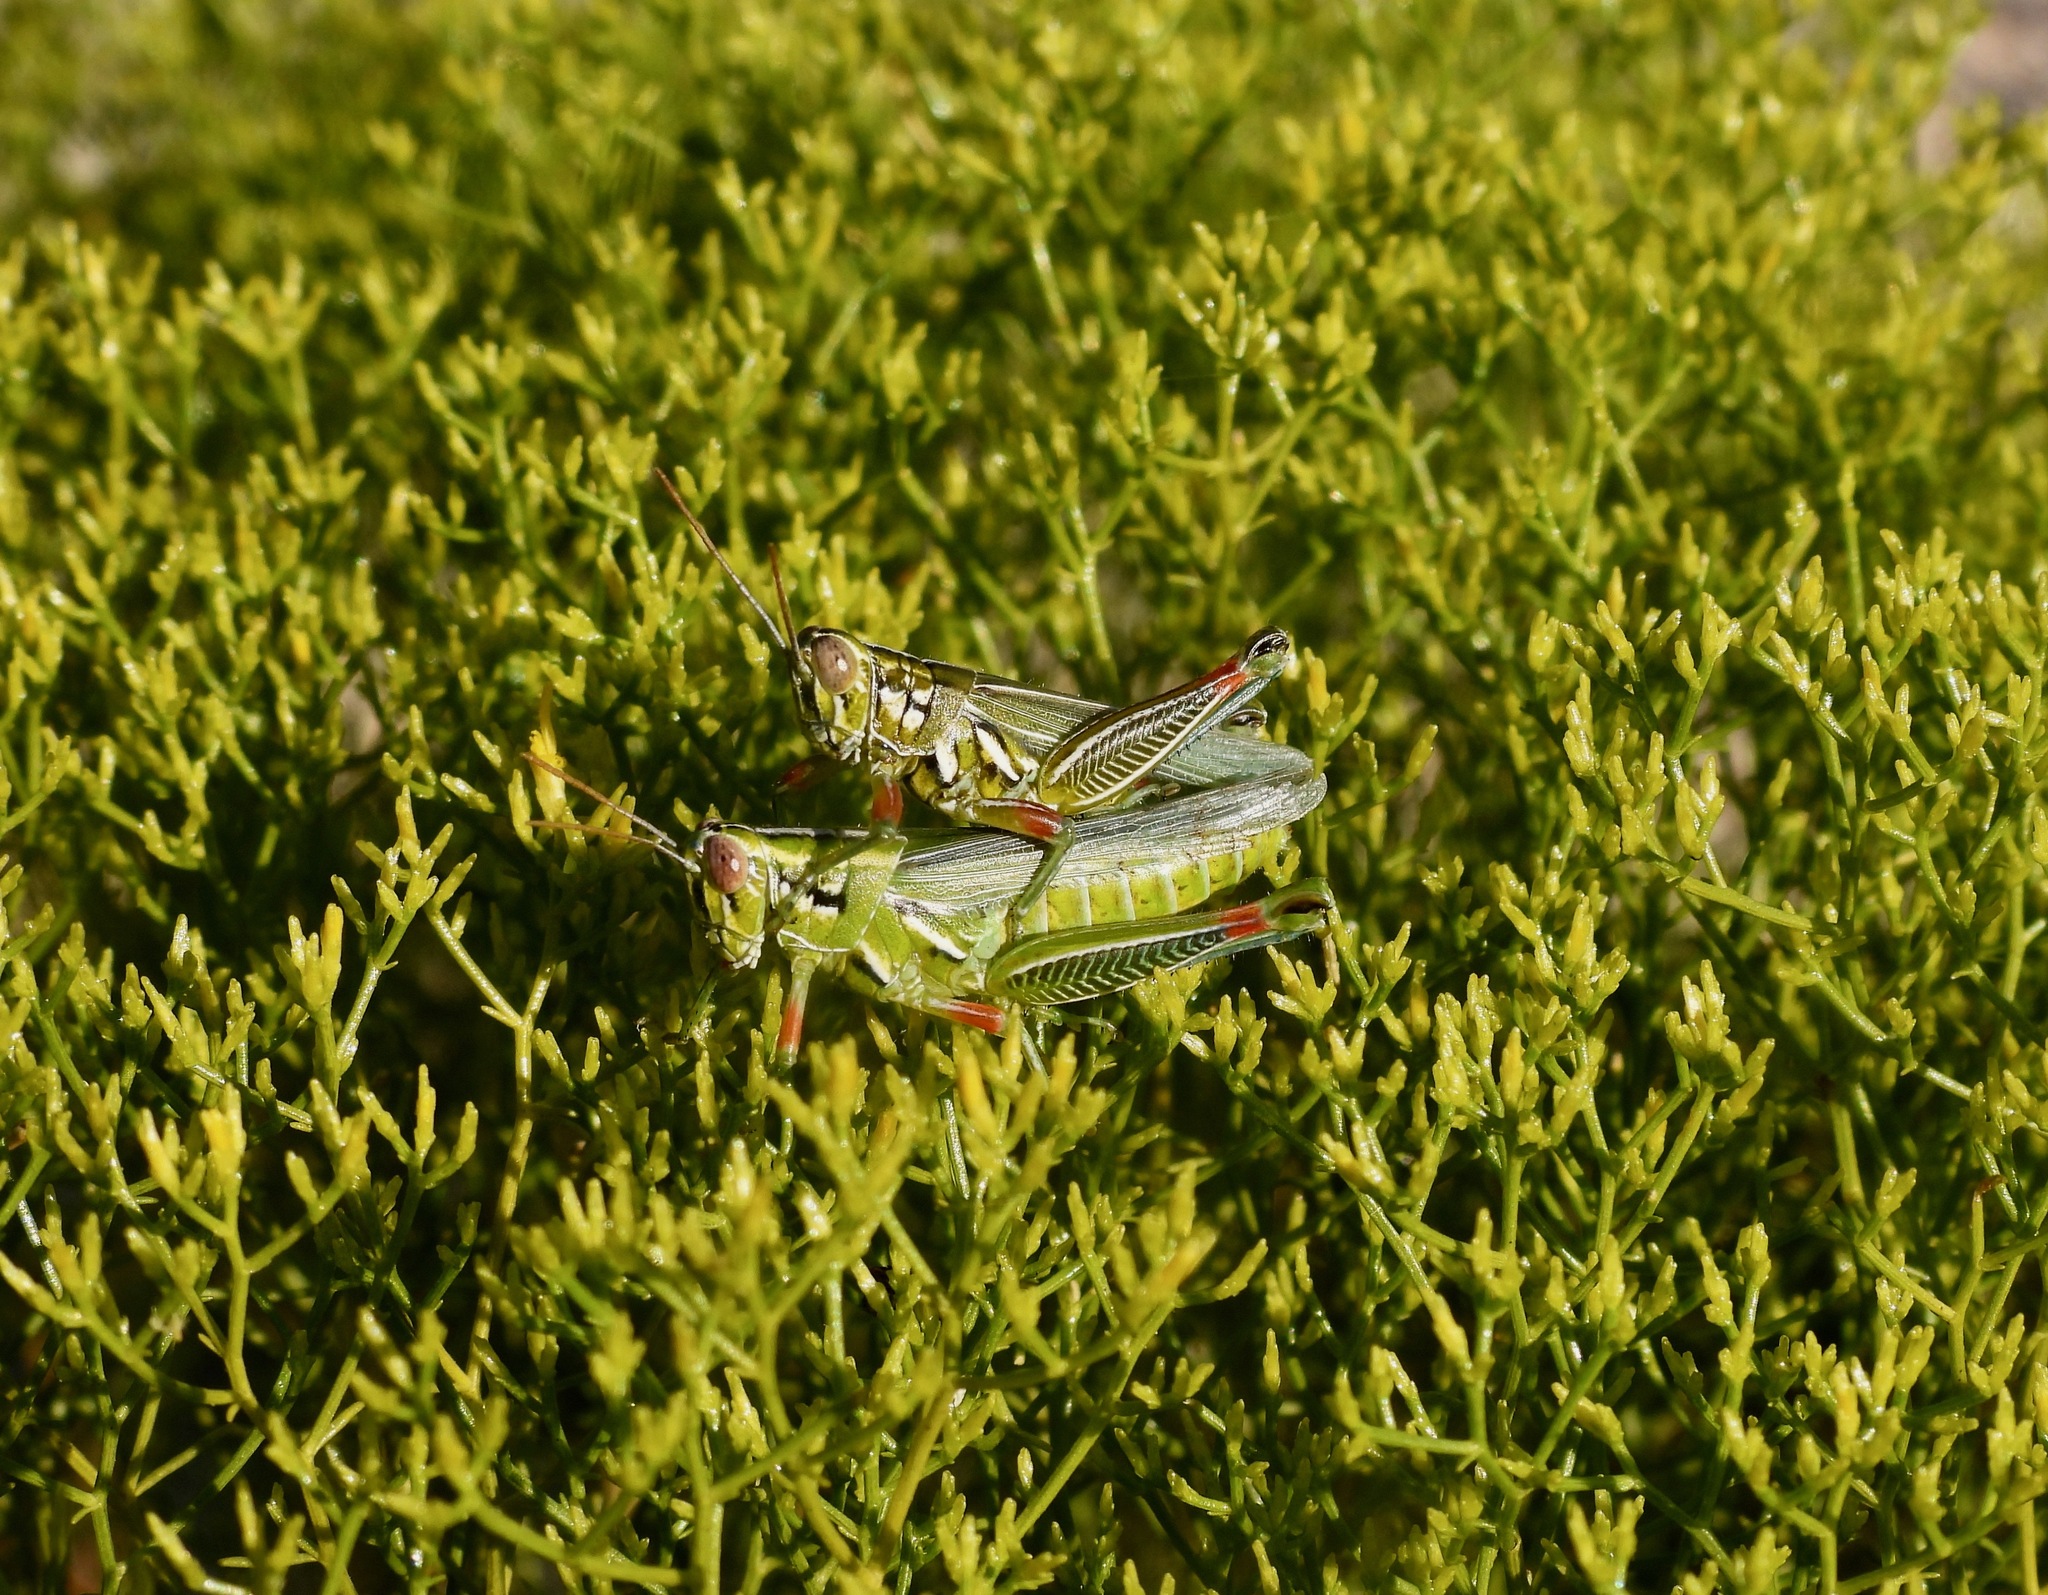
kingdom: Animalia
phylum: Arthropoda
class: Insecta
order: Orthoptera
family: Acrididae
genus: Hesperotettix
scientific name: Hesperotettix viridis
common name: Meadow purple-striped grasshopper
